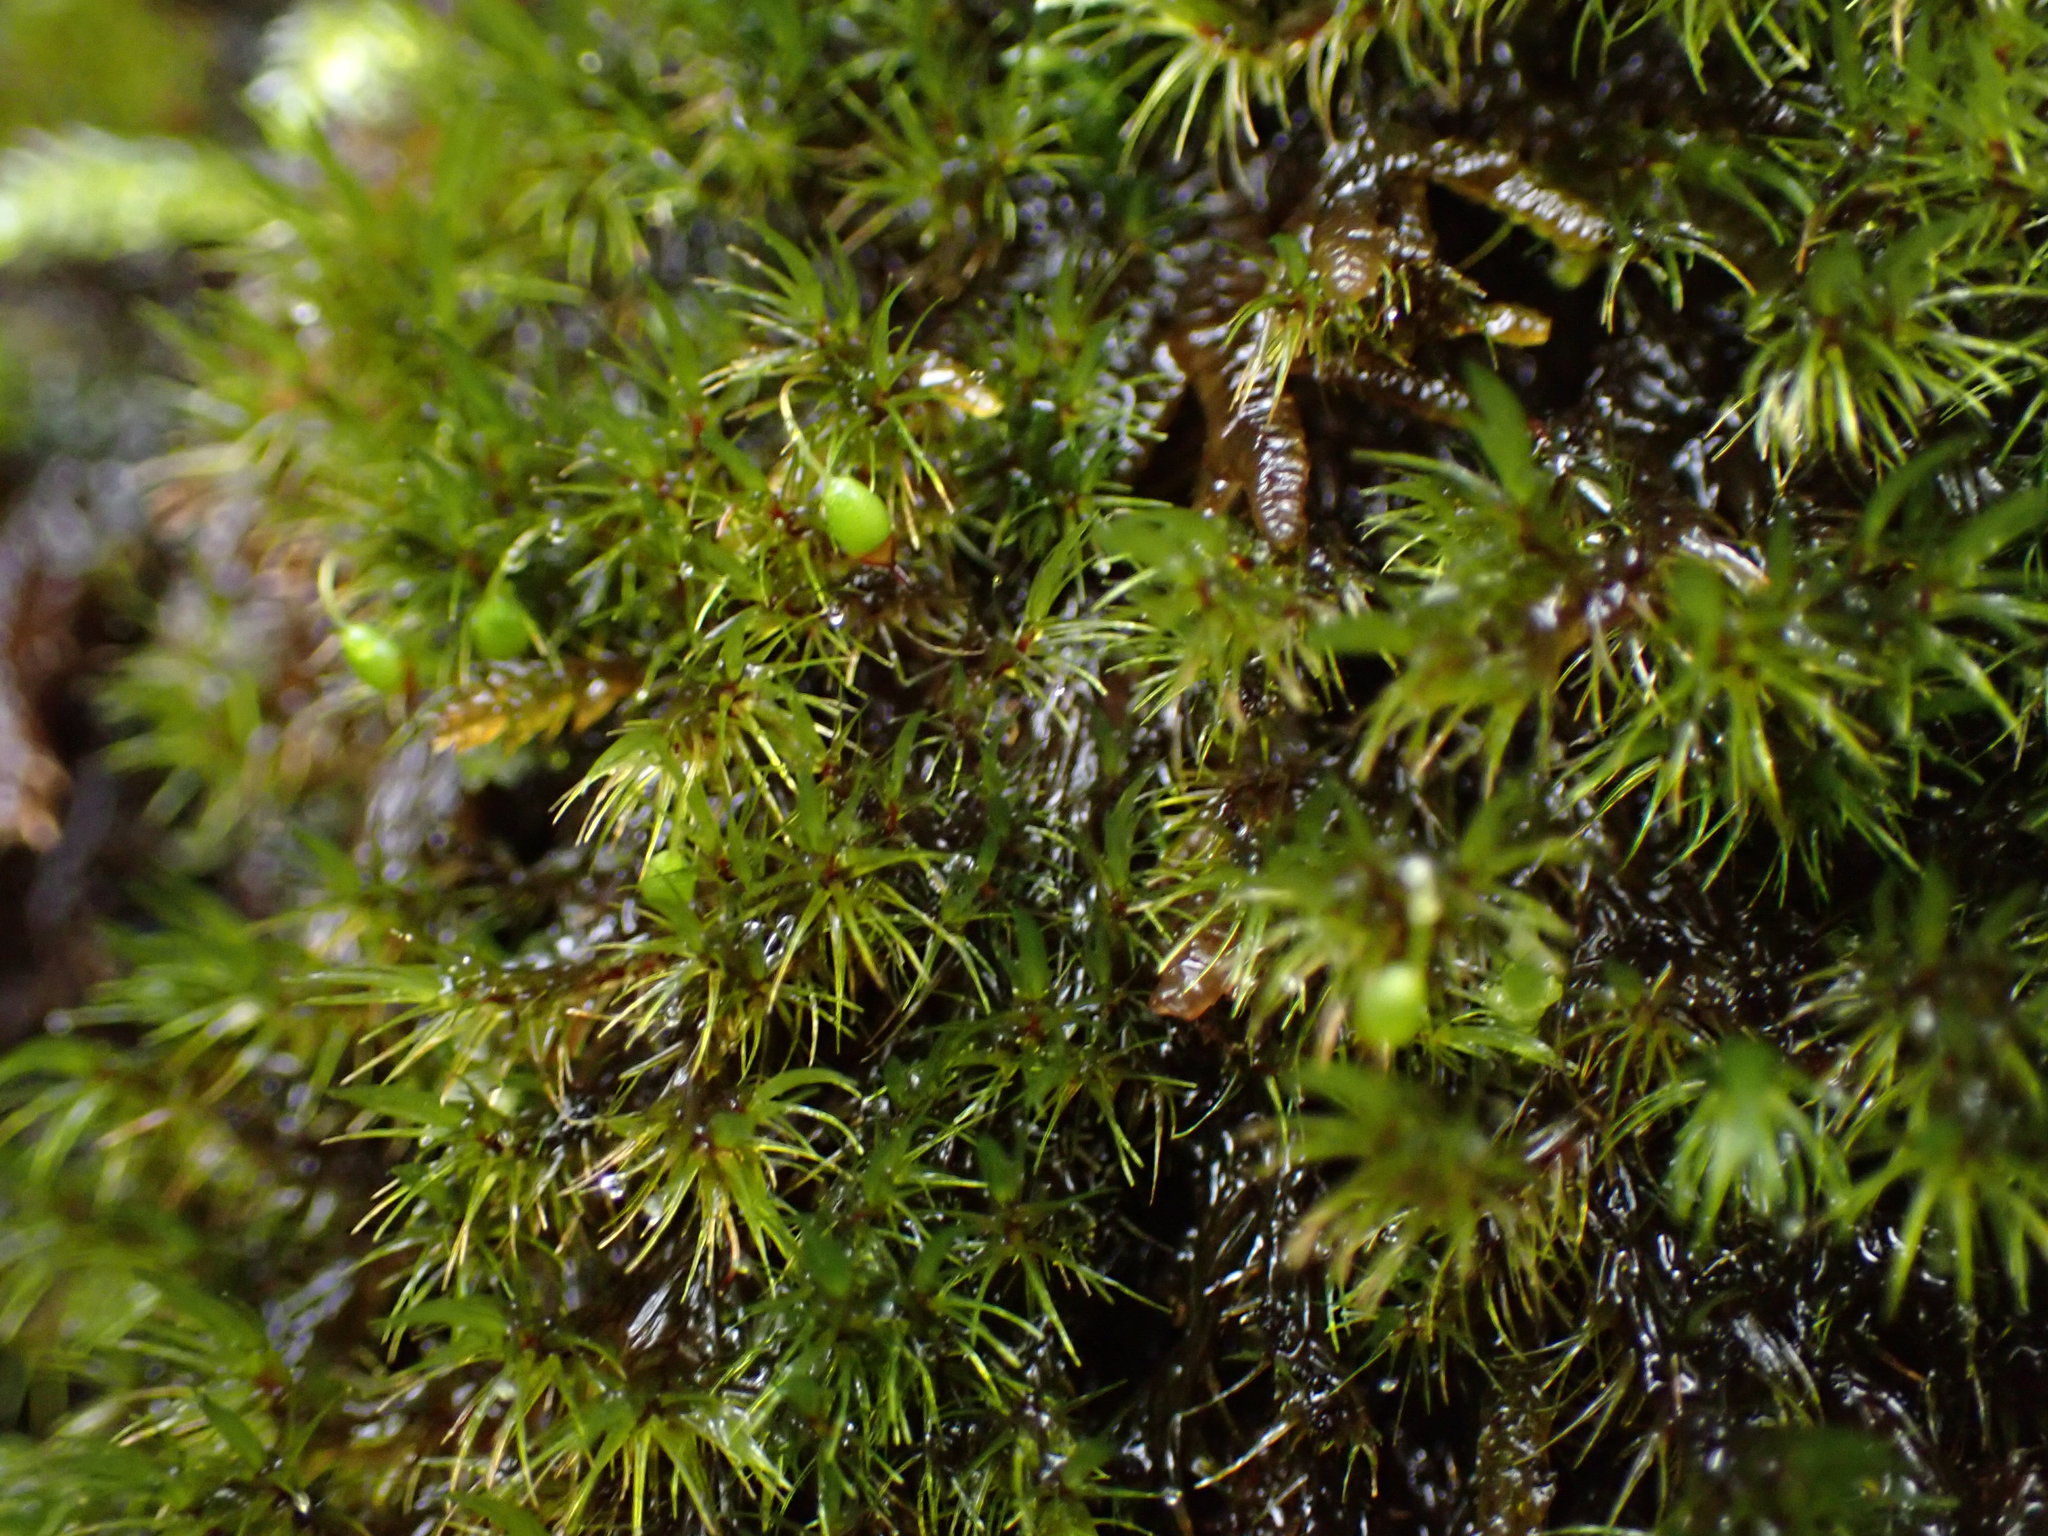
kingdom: Plantae
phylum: Bryophyta
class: Bryopsida
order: Grimmiales
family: Seligeriaceae
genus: Blindia
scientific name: Blindia acuta
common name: Sharp-leaved blind's moss
